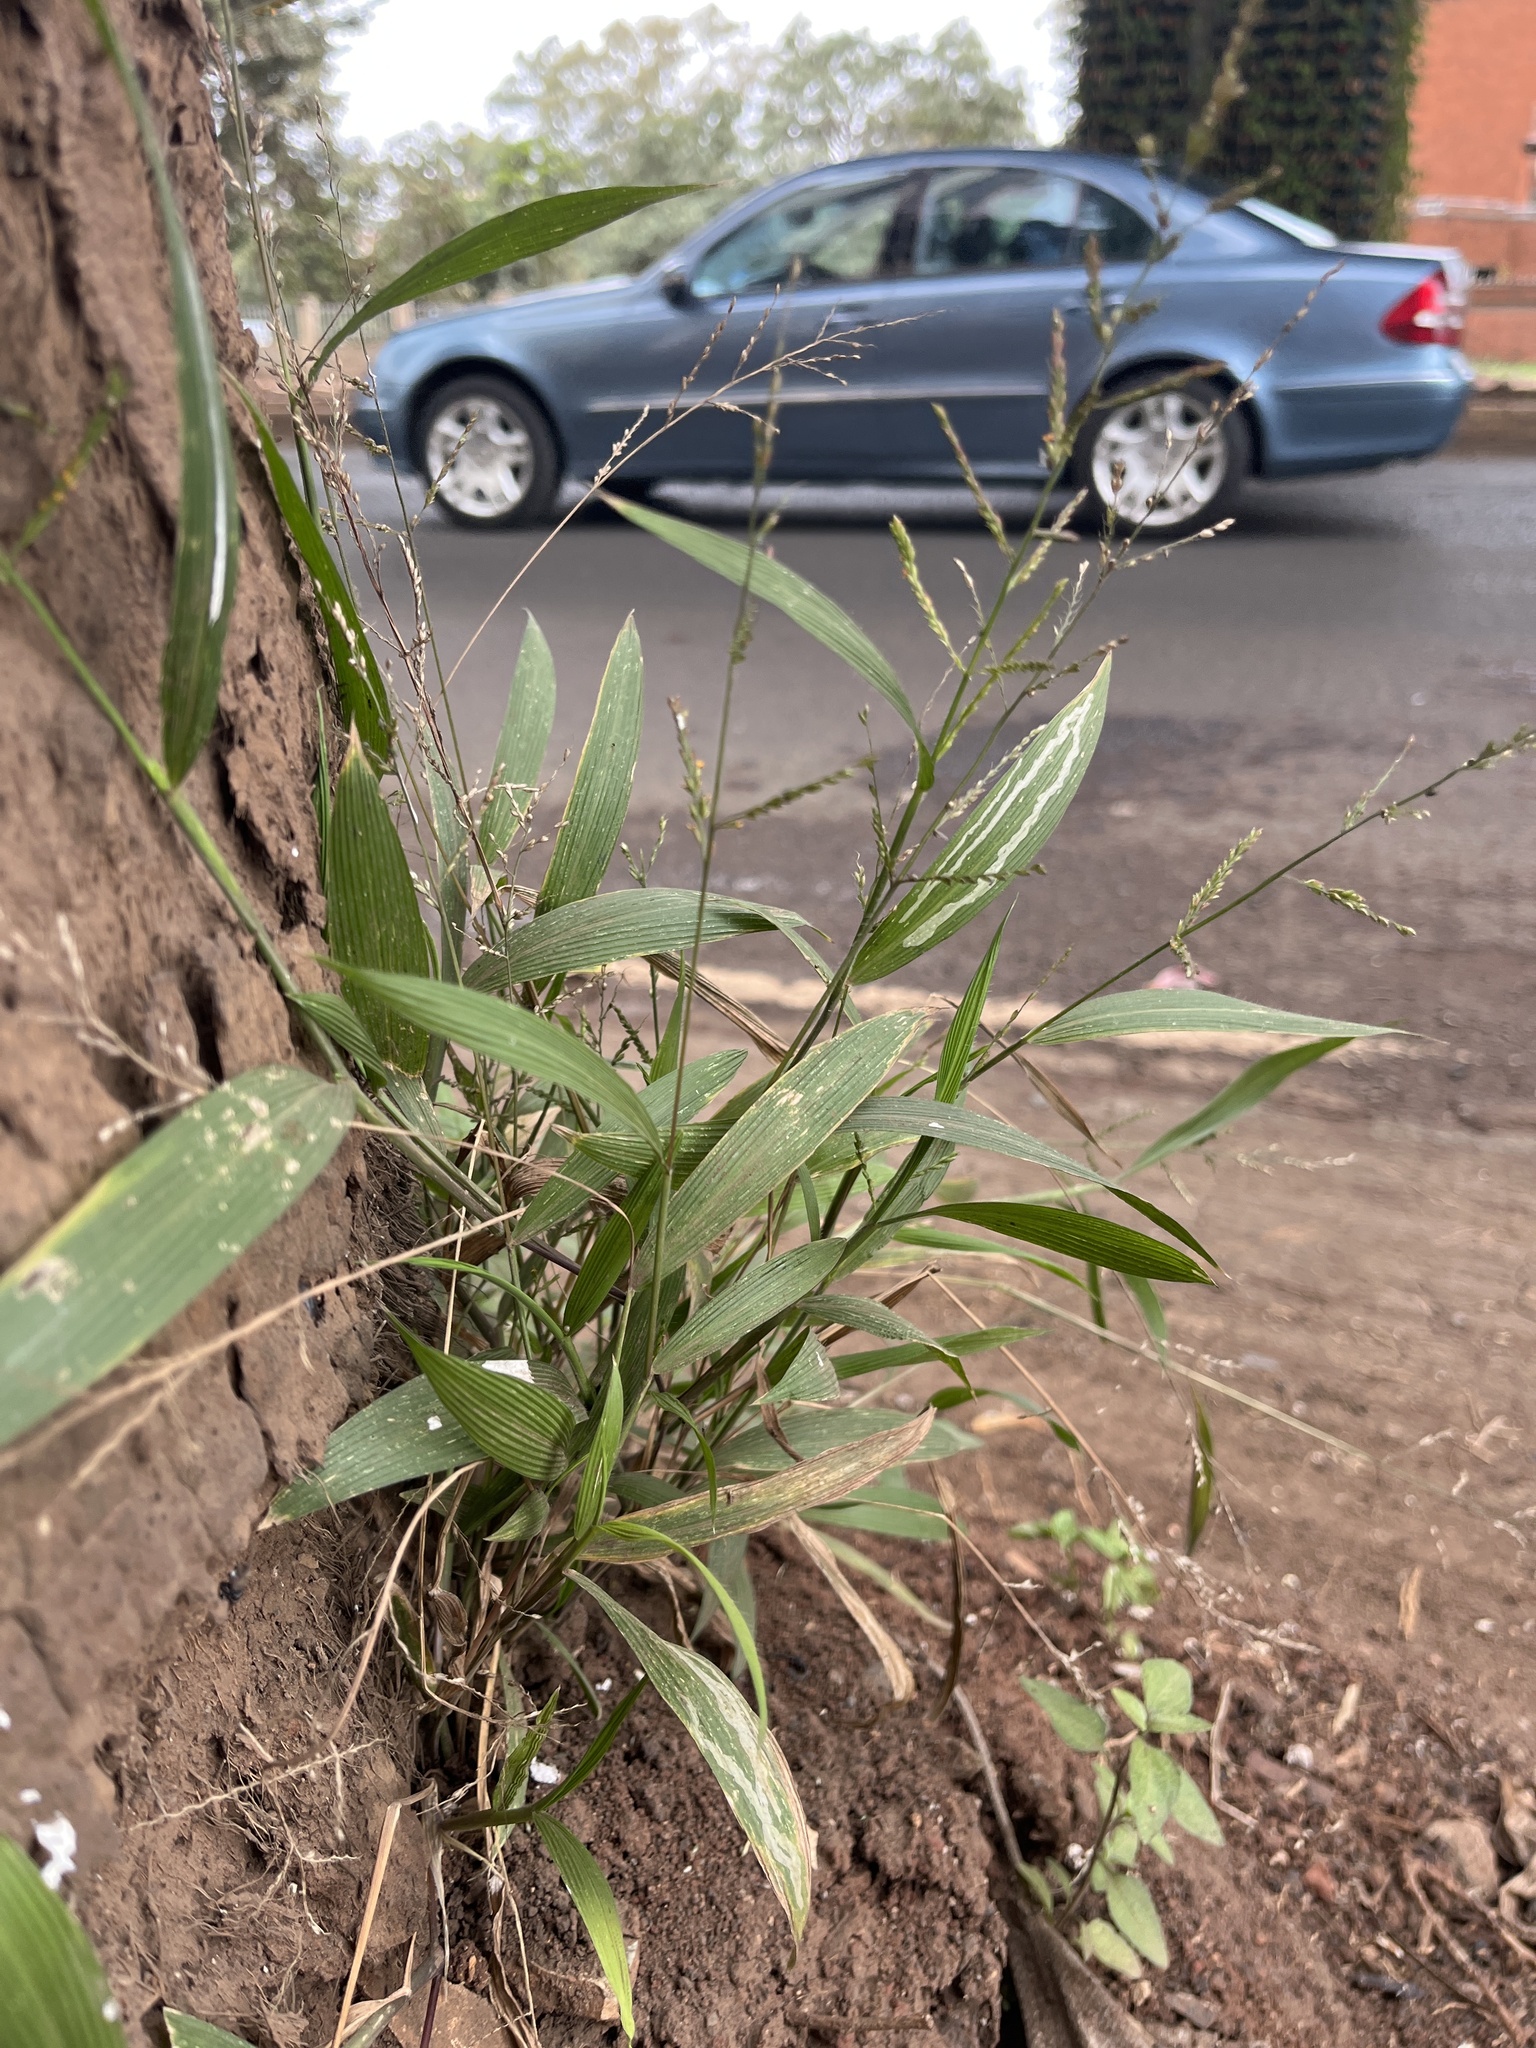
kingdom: Plantae
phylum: Tracheophyta
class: Liliopsida
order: Poales
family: Poaceae
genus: Setaria
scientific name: Setaria megaphylla
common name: Bigleaf bristlegrass
